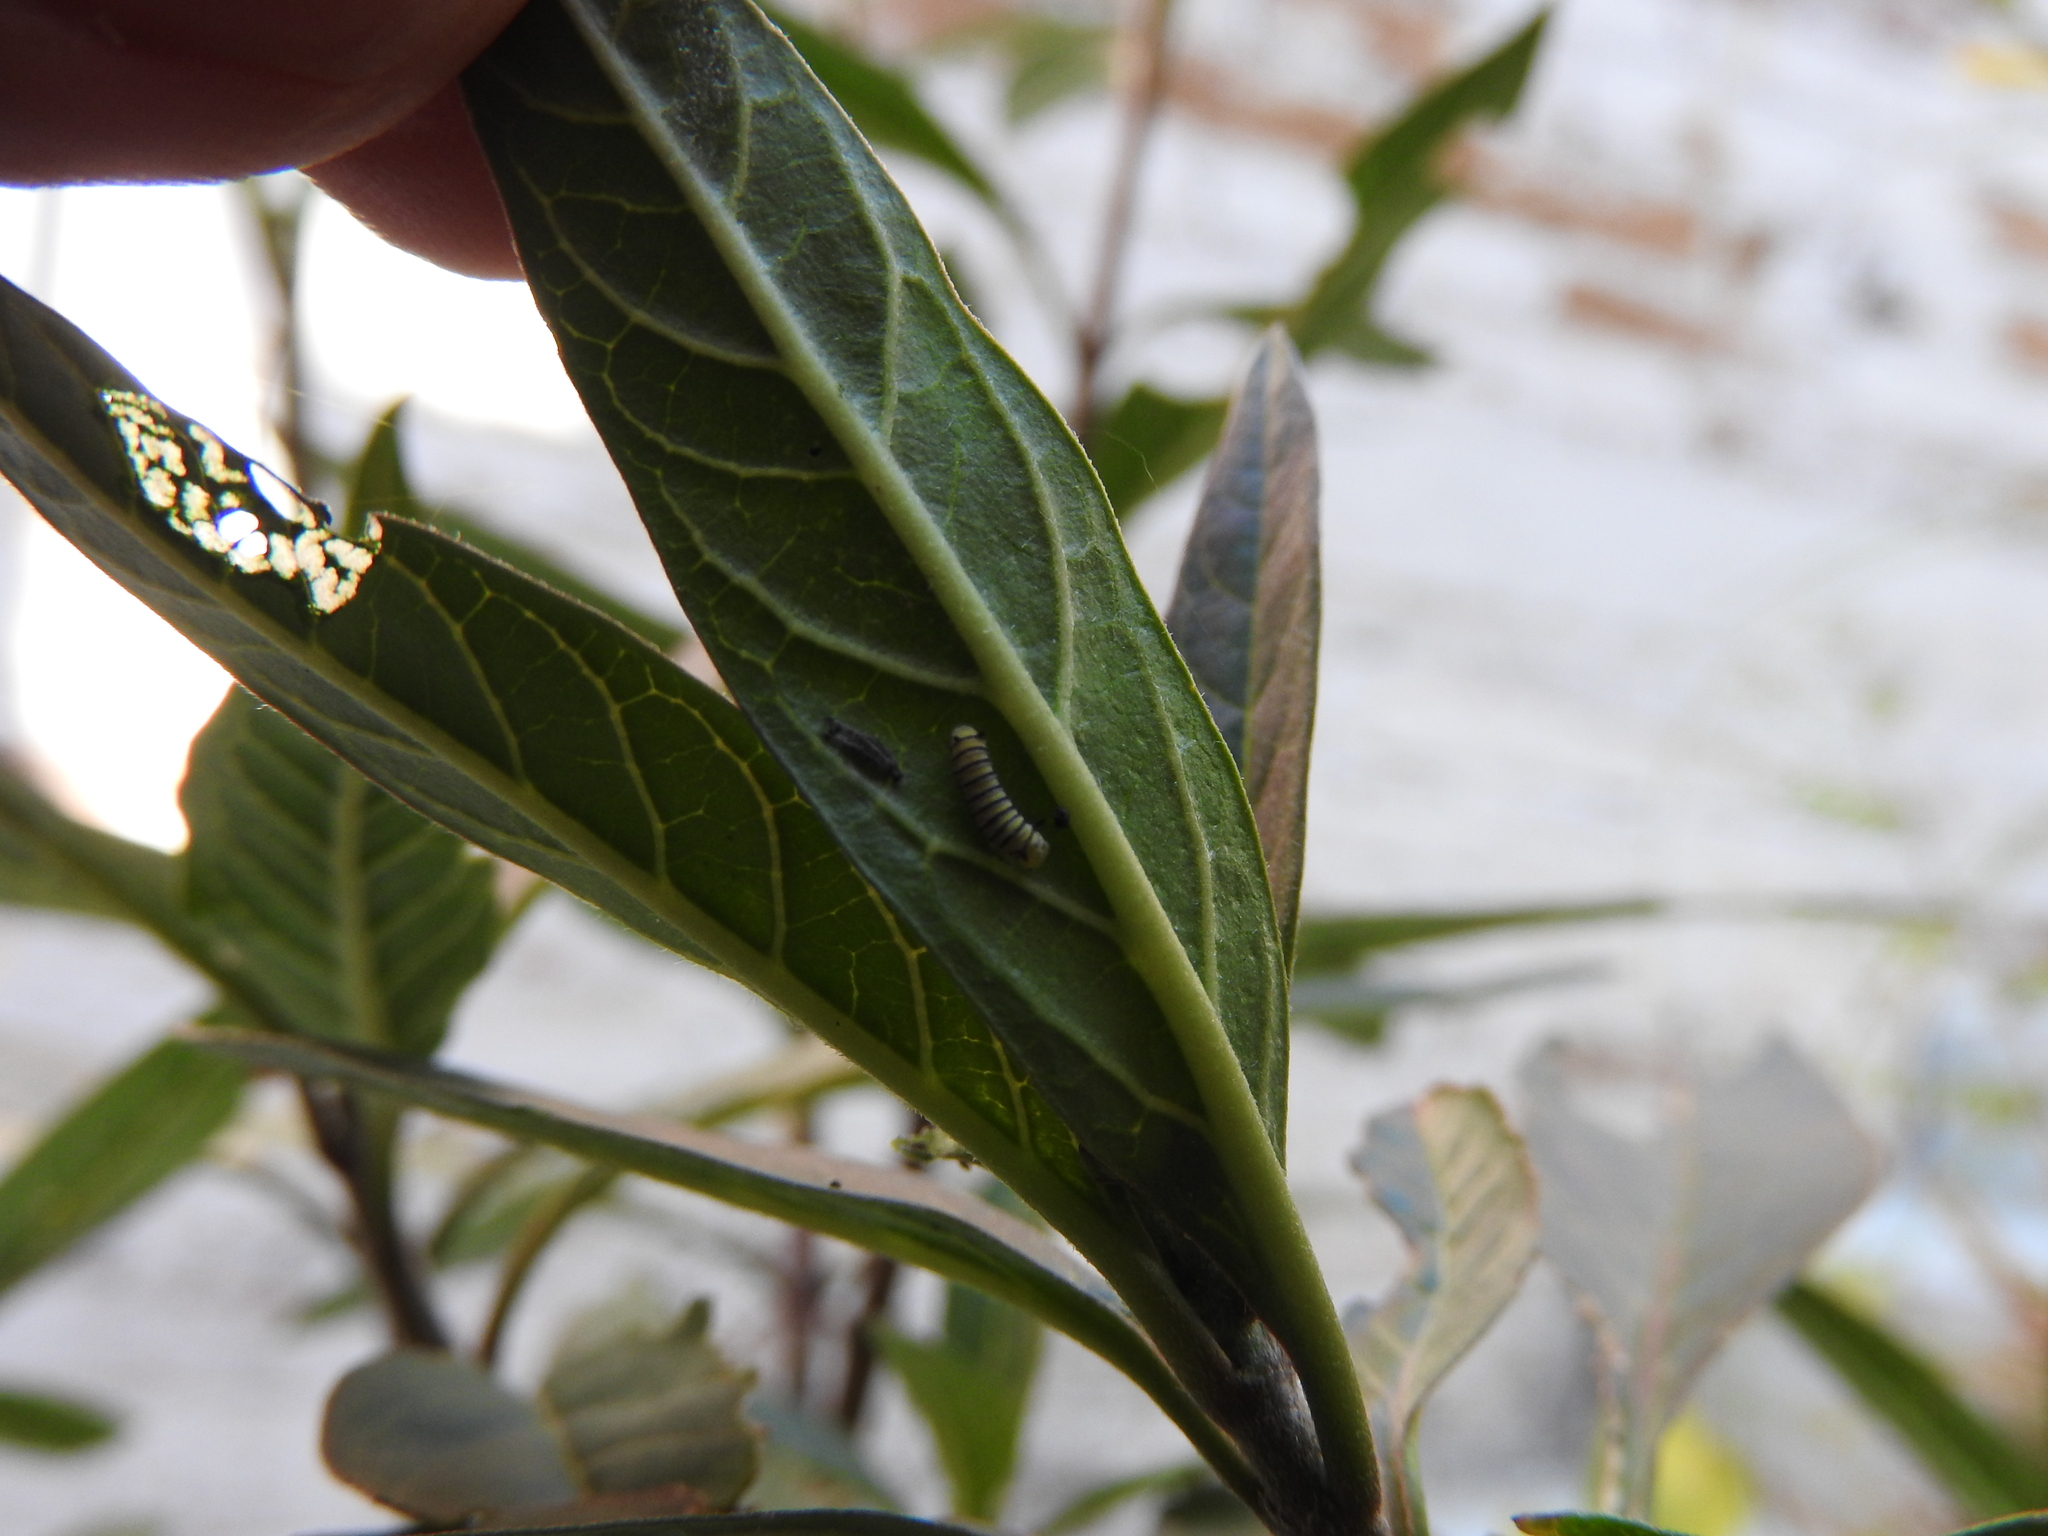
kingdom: Animalia
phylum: Arthropoda
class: Insecta
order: Lepidoptera
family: Nymphalidae
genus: Danaus
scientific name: Danaus plexippus
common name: Monarch
